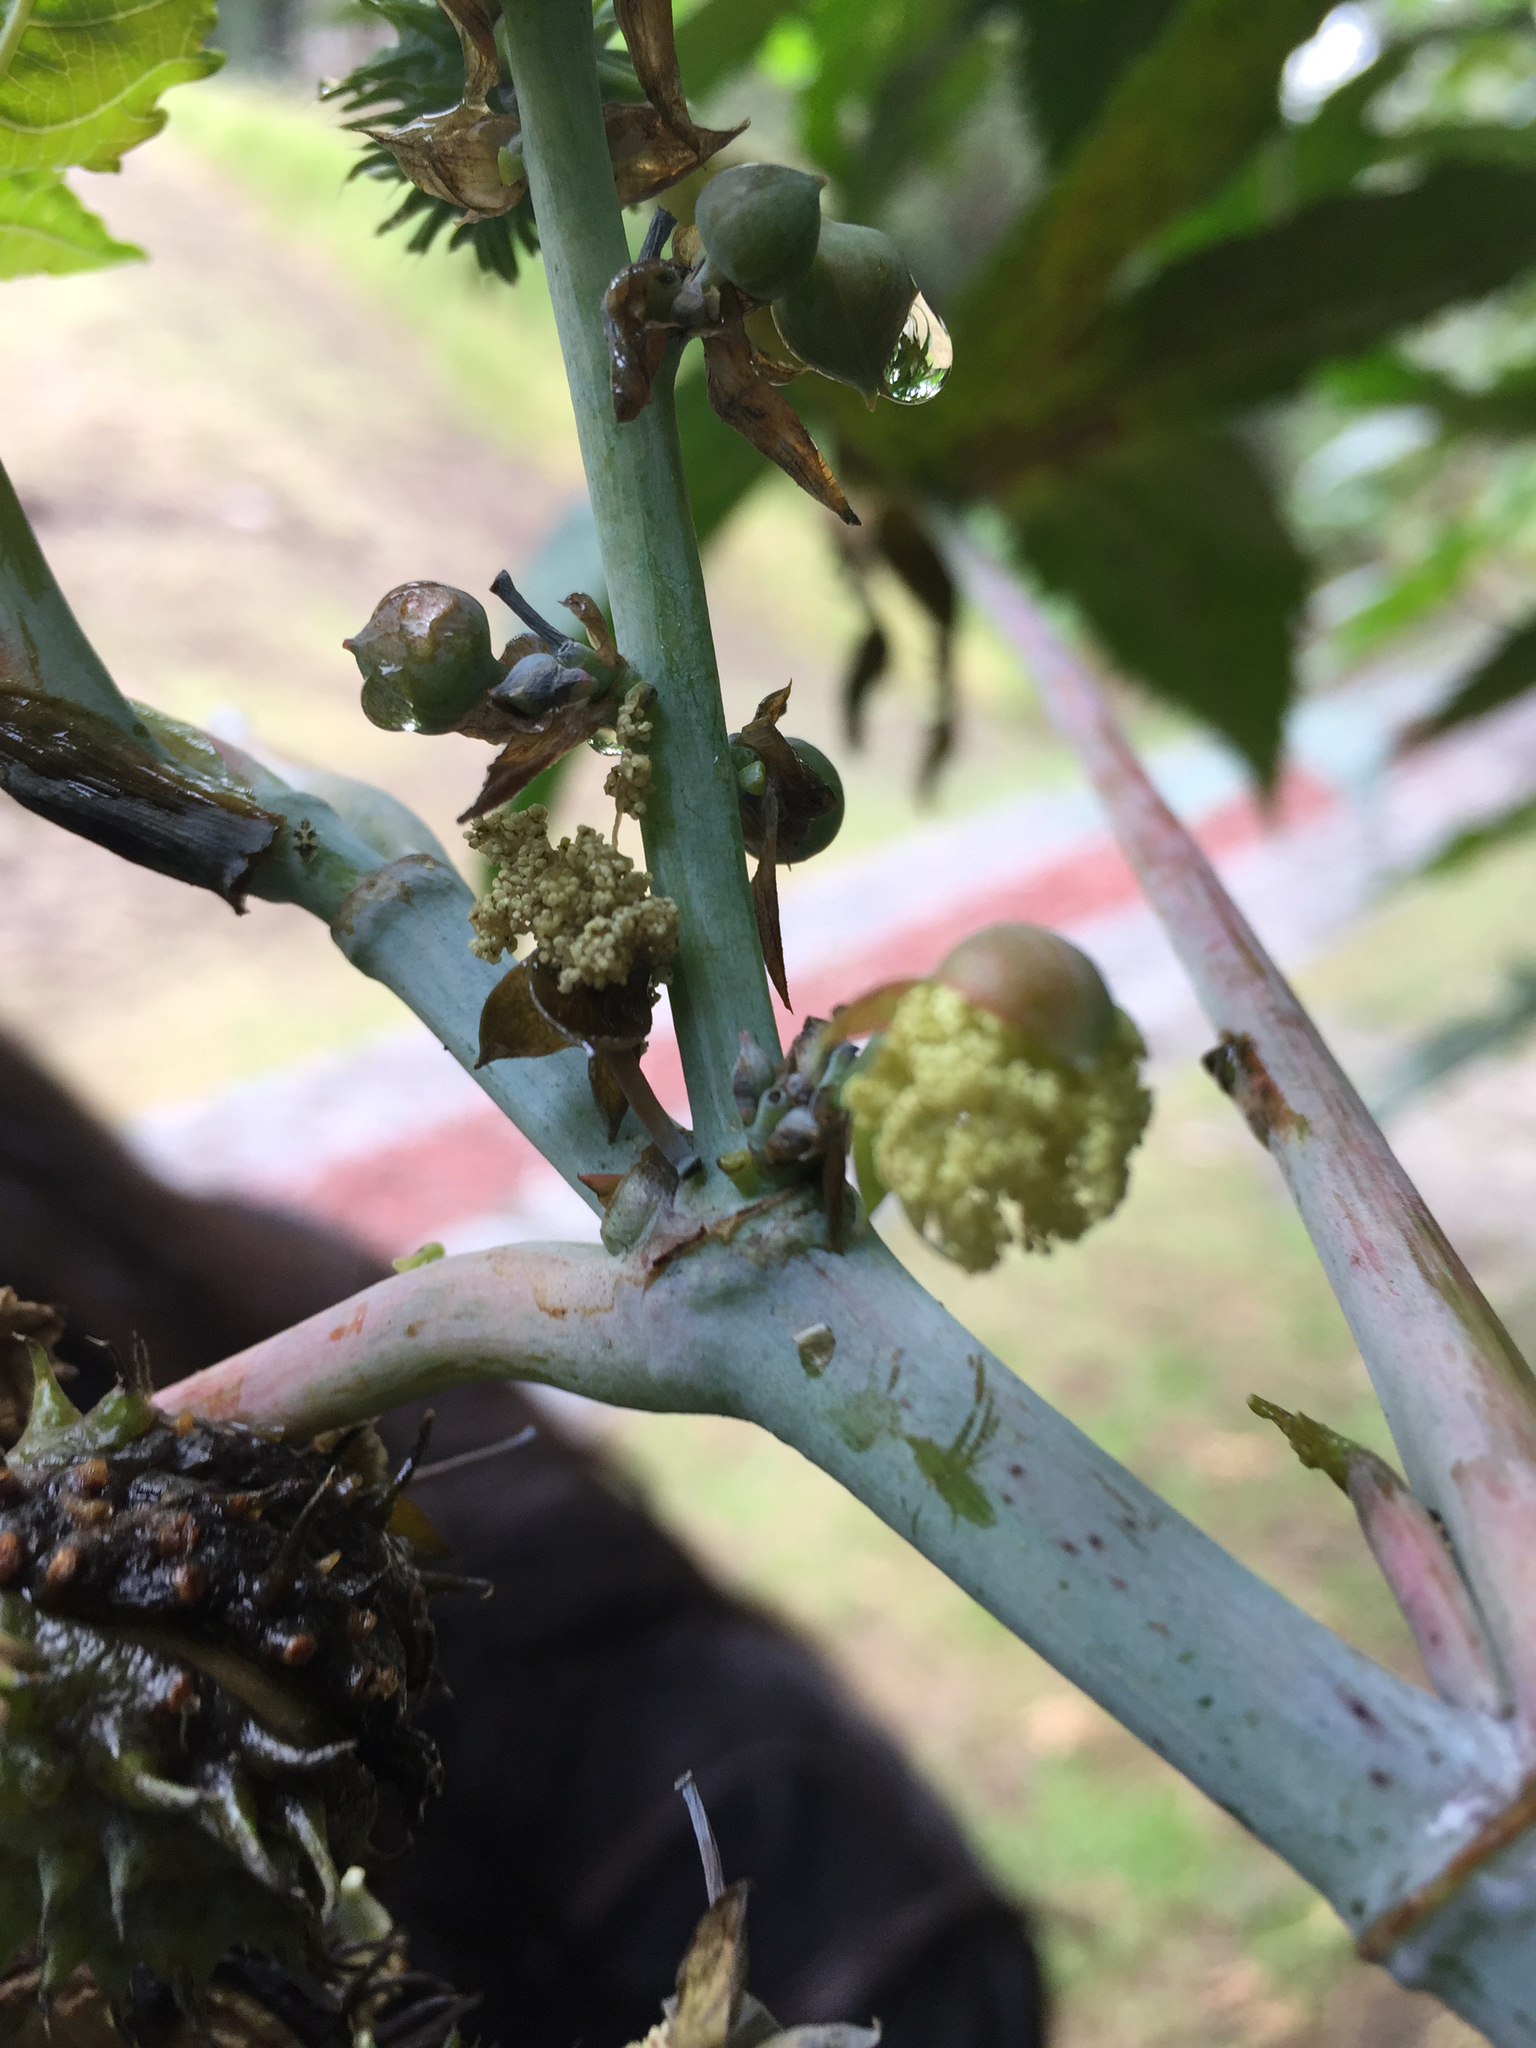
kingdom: Plantae
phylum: Tracheophyta
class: Magnoliopsida
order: Malpighiales
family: Euphorbiaceae
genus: Ricinus
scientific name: Ricinus communis
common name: Castor-oil-plant
